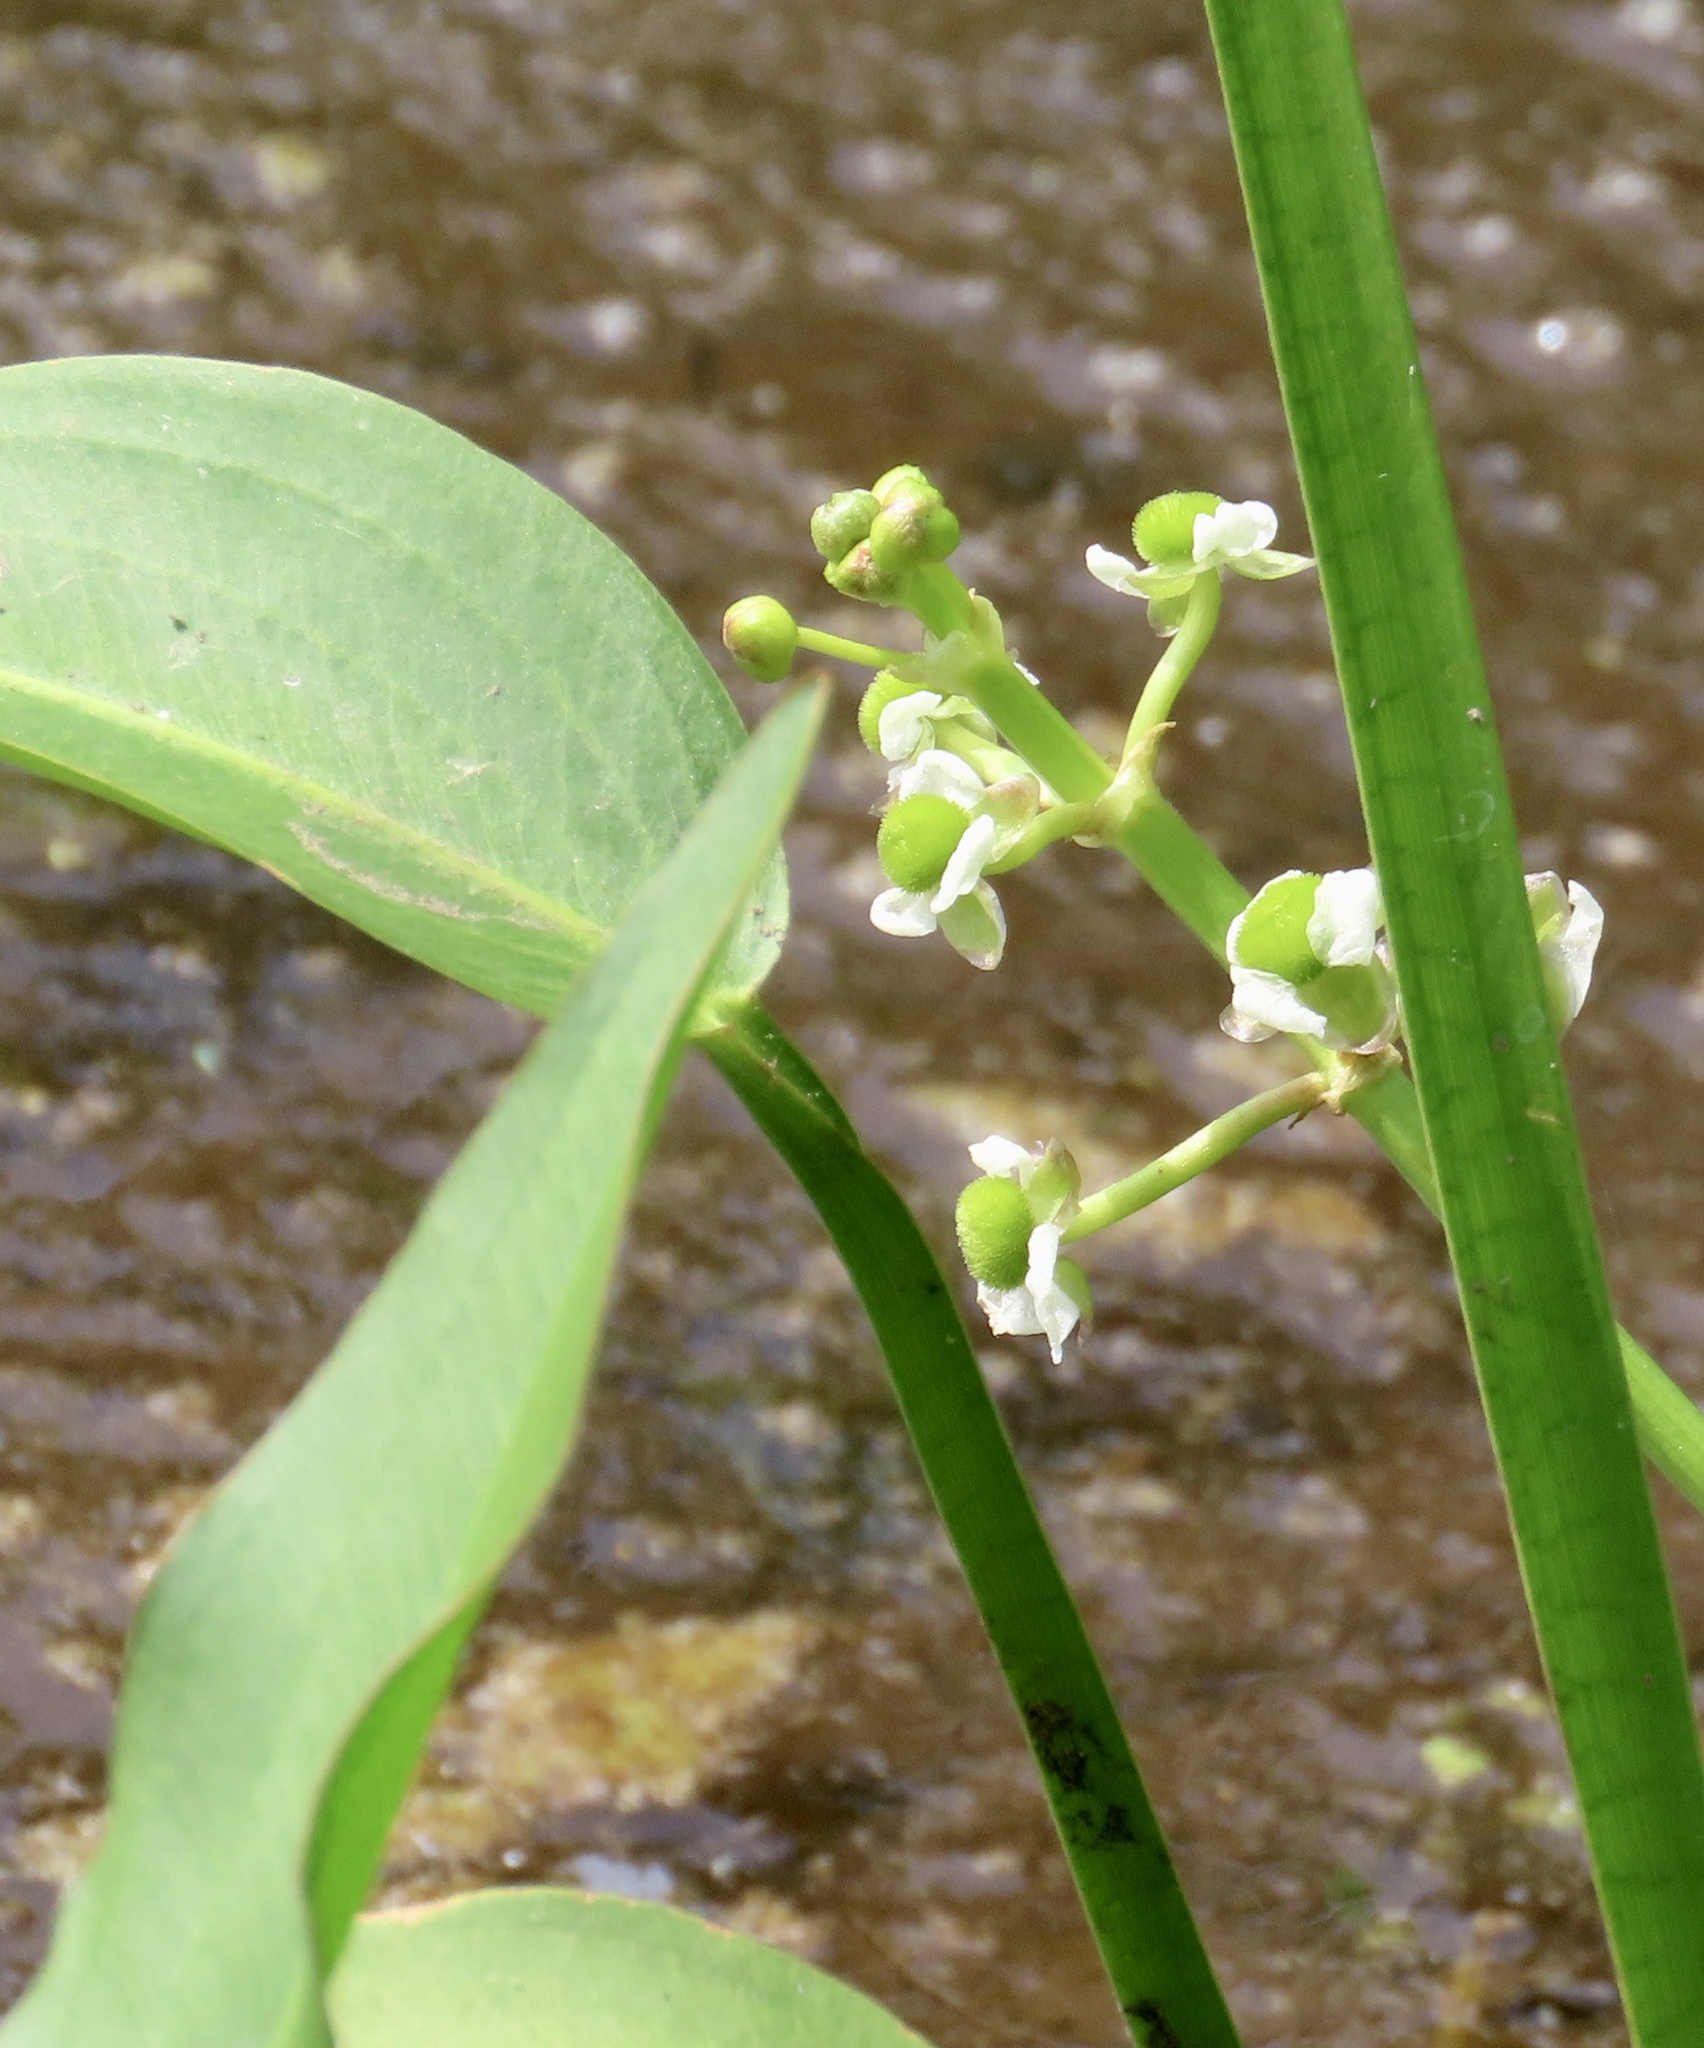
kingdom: Plantae
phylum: Tracheophyta
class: Liliopsida
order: Alismatales
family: Alismataceae
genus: Sagittaria
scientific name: Sagittaria platyphylla
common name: Broad-leaf arrowhead
